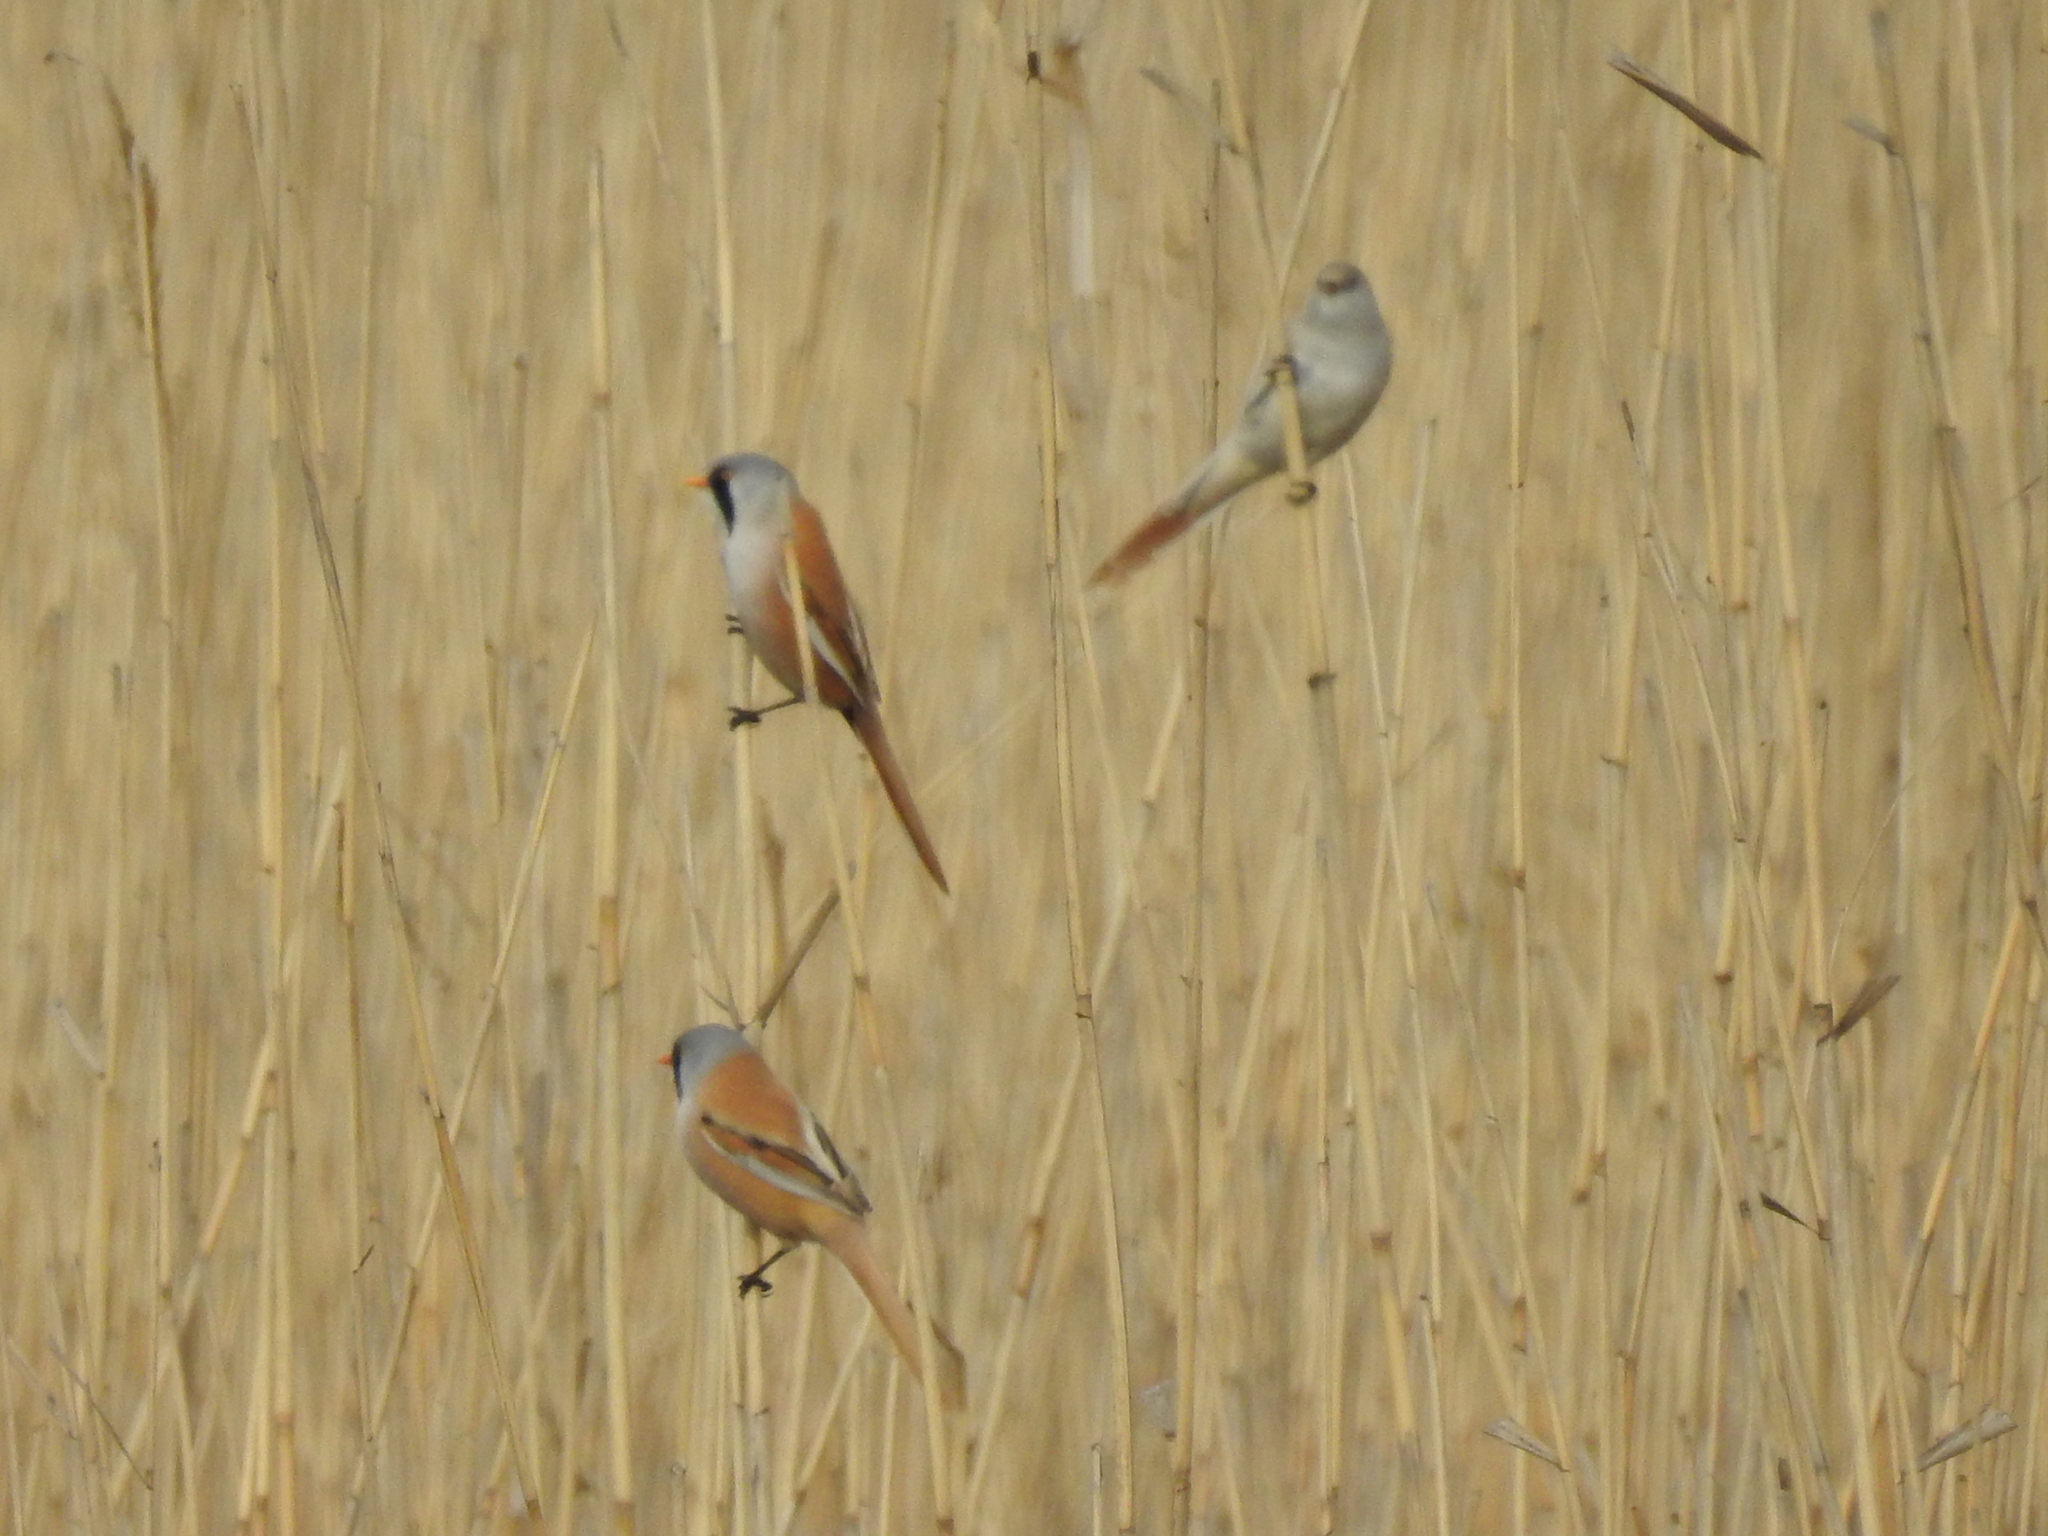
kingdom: Animalia
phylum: Chordata
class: Aves
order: Passeriformes
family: Panuridae
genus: Panurus
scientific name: Panurus biarmicus
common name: Bearded reedling
